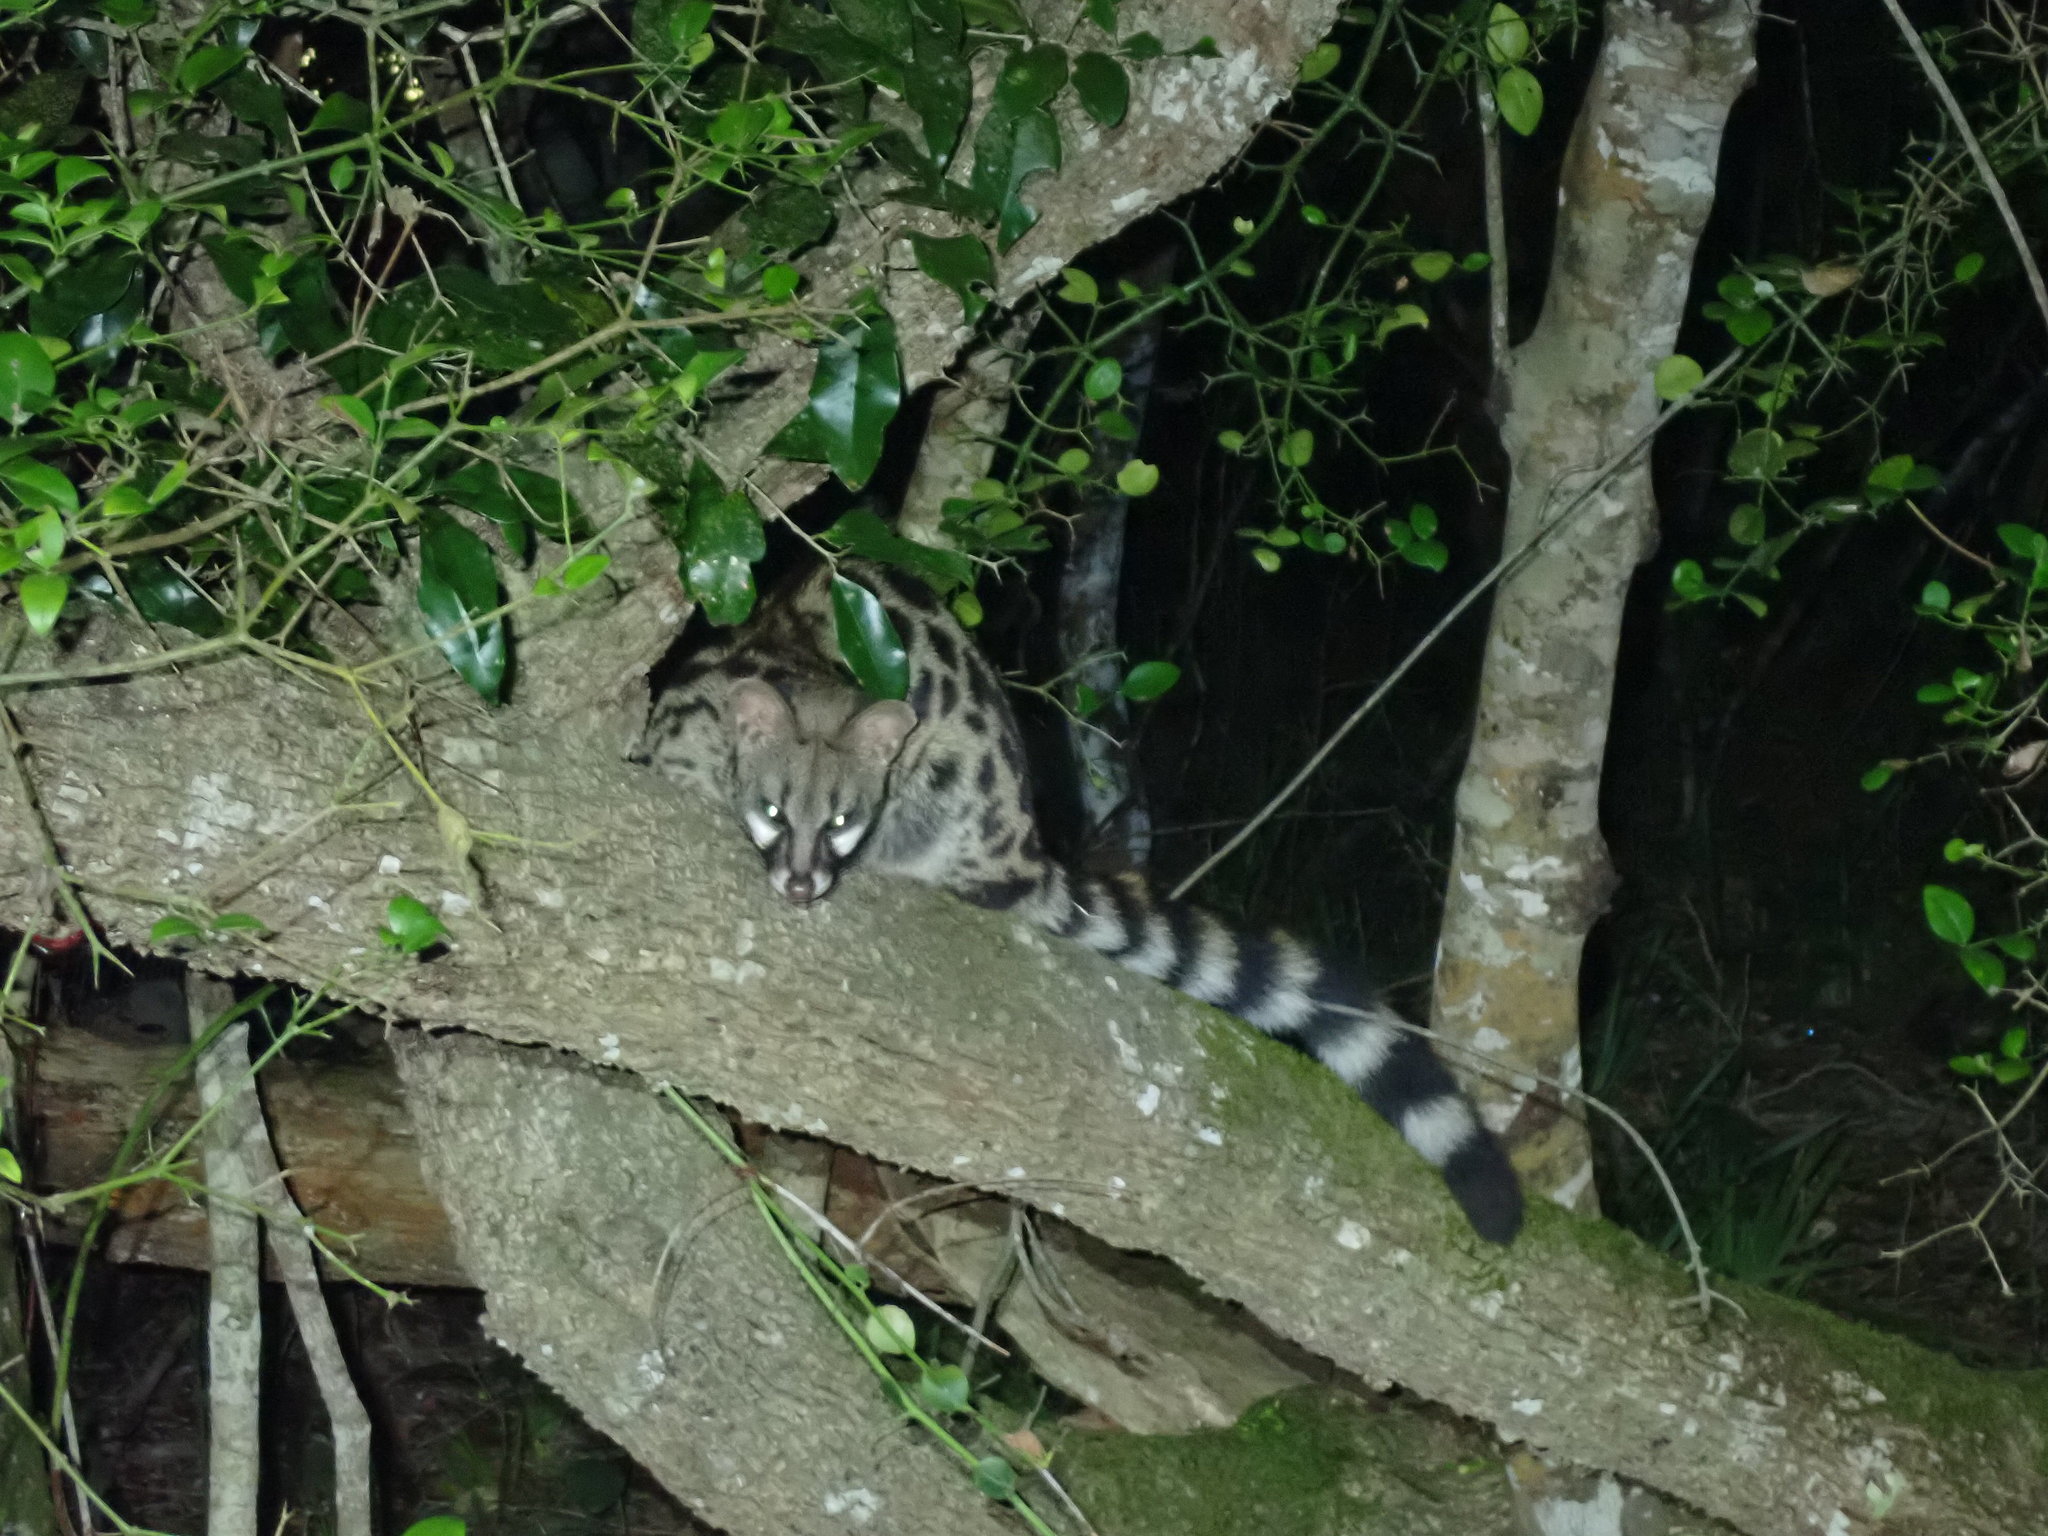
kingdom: Animalia
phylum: Chordata
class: Mammalia
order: Carnivora
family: Viverridae
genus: Genetta
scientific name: Genetta tigrina
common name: Cape genet
